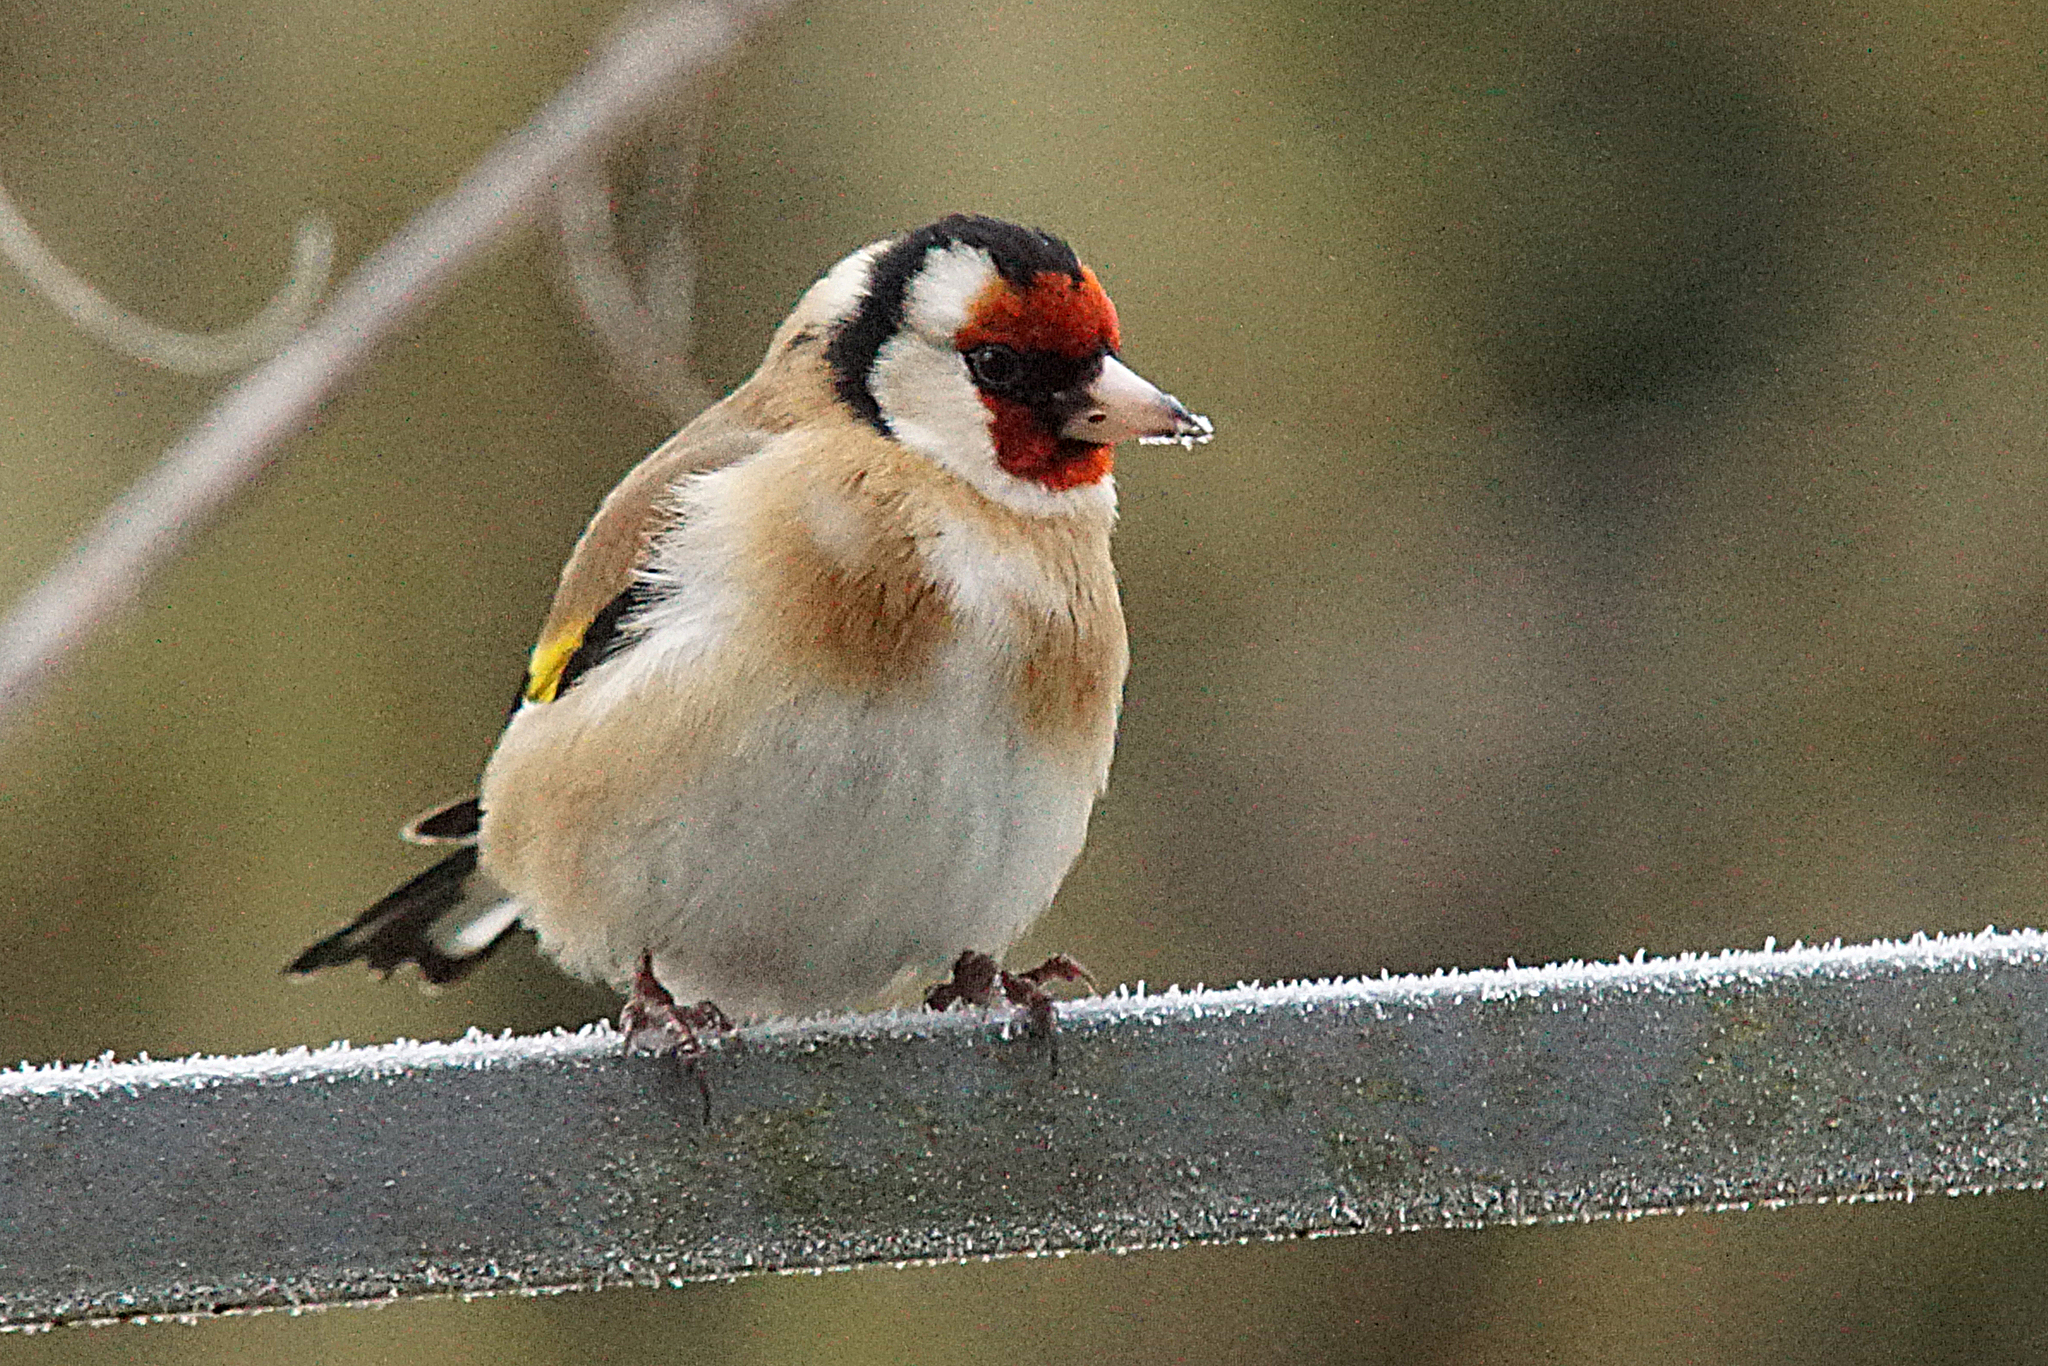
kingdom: Animalia
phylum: Chordata
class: Aves
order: Passeriformes
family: Fringillidae
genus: Carduelis
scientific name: Carduelis carduelis
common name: European goldfinch
